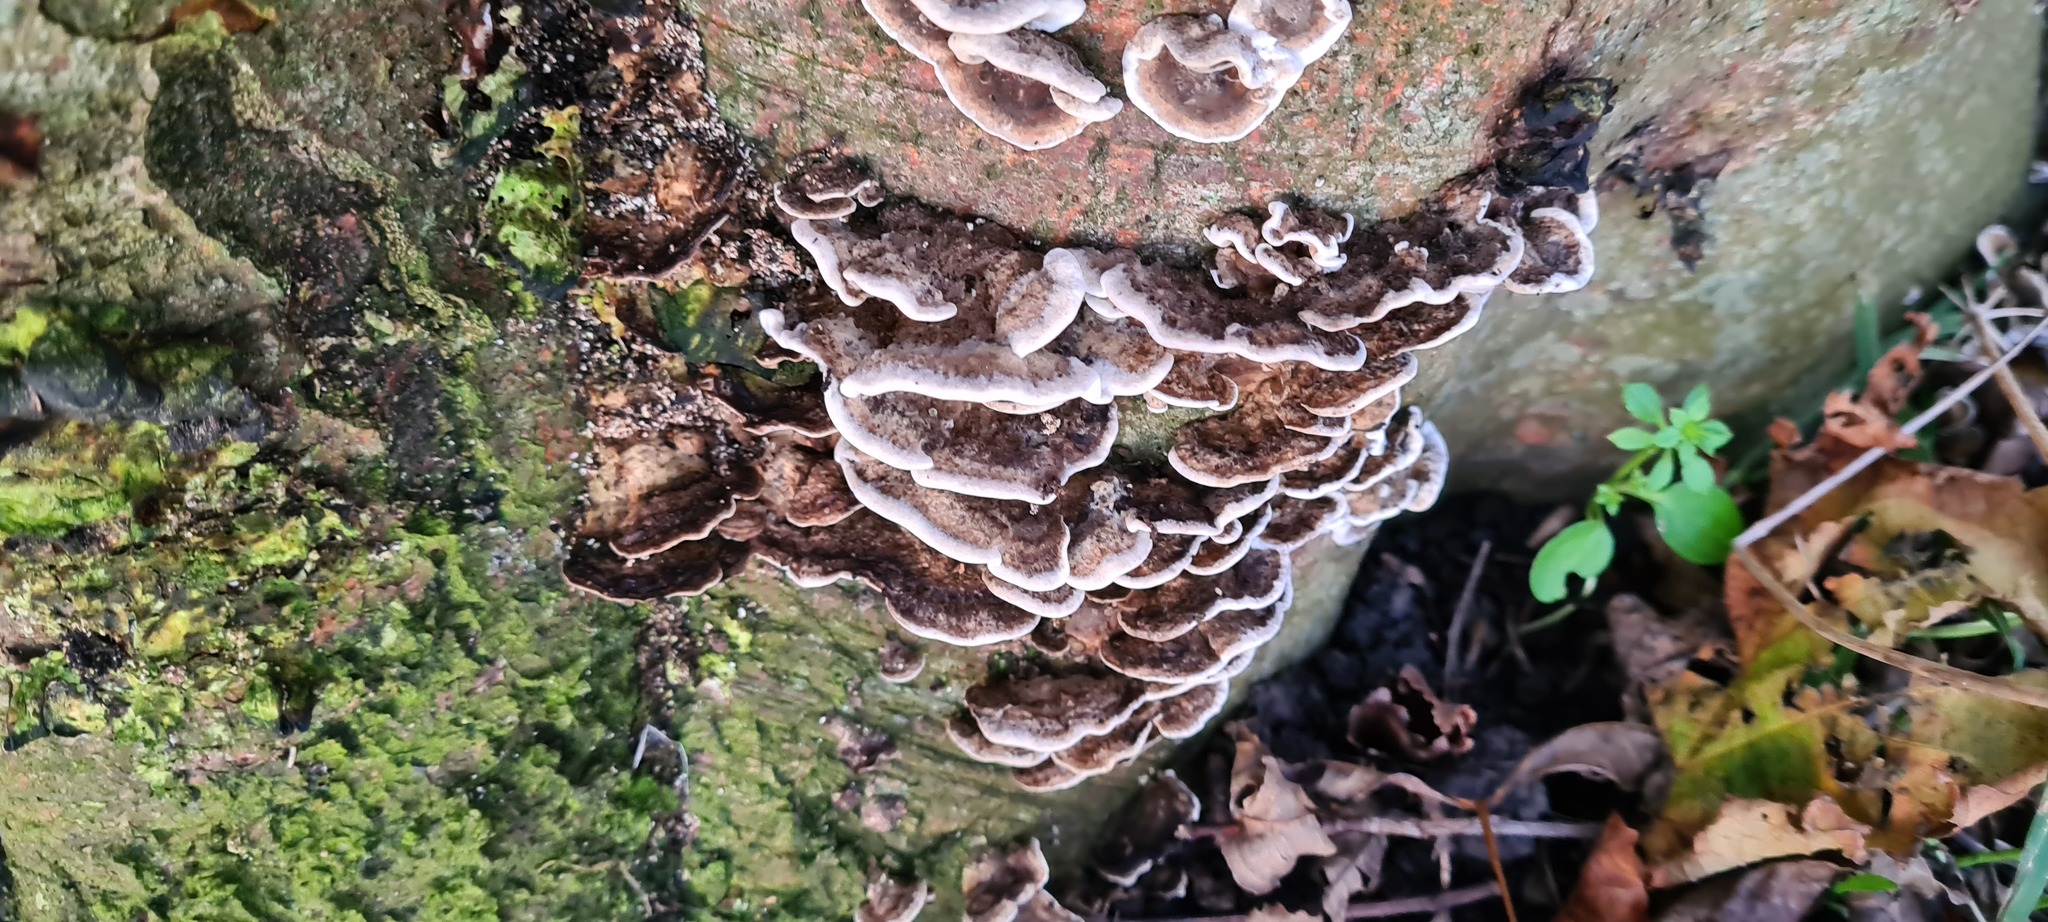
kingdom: Fungi
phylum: Basidiomycota
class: Agaricomycetes
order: Polyporales
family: Polyporaceae
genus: Trametes
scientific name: Trametes versicolor
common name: Turkeytail
